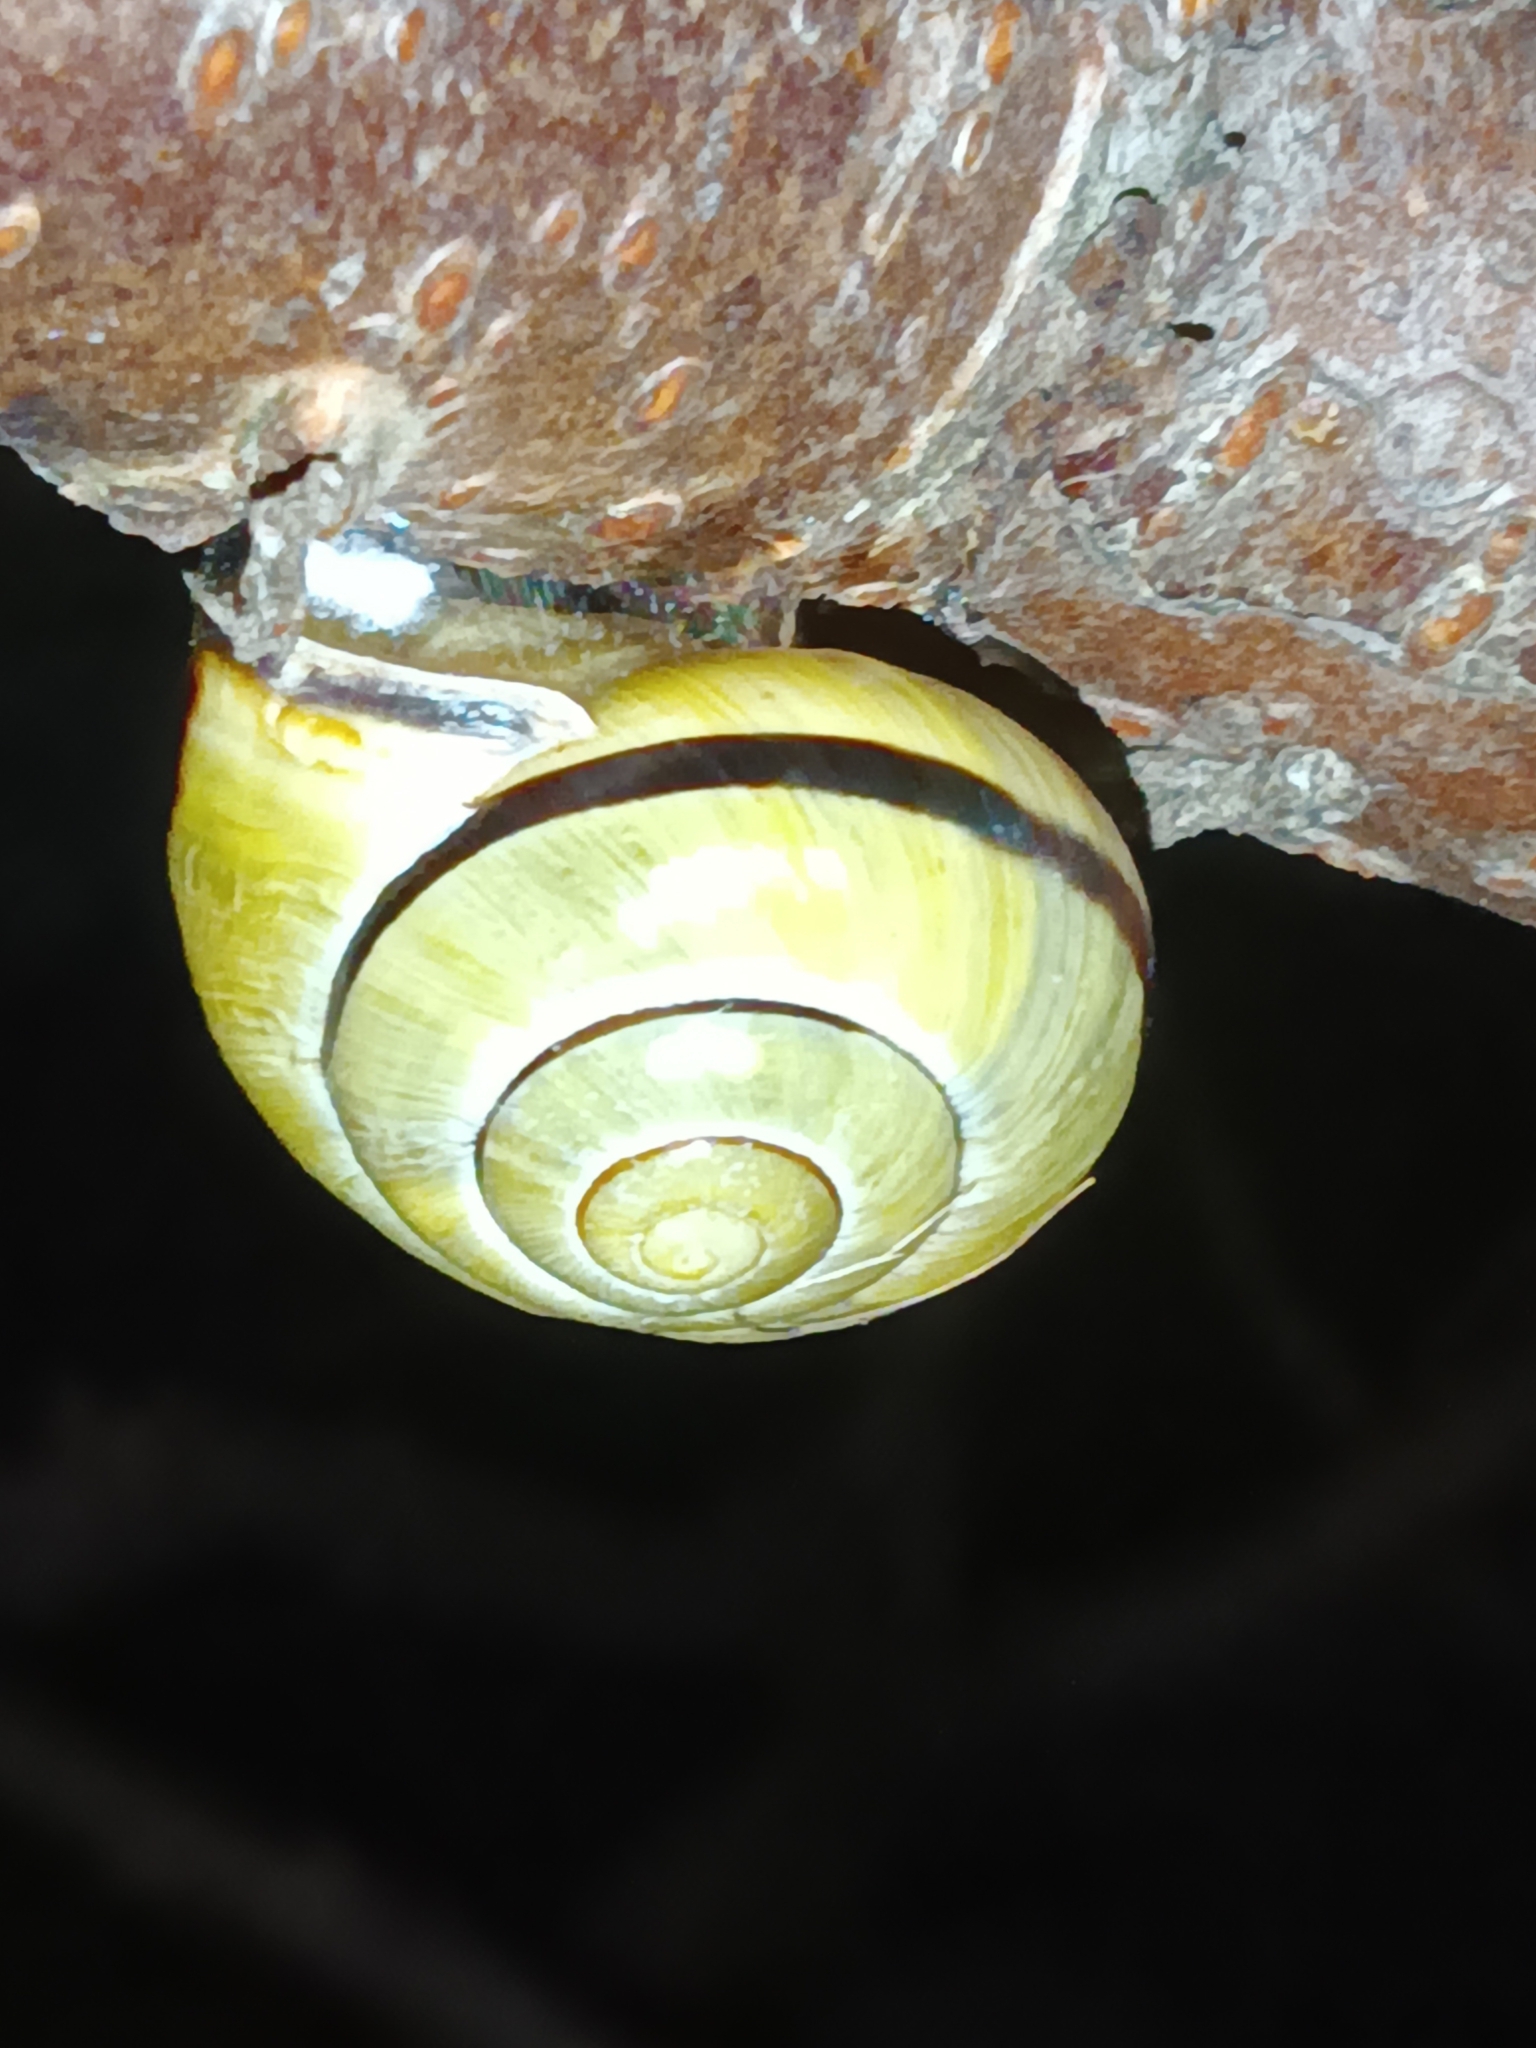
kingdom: Animalia
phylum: Mollusca
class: Gastropoda
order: Stylommatophora
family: Helicidae
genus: Cepaea
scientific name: Cepaea nemoralis
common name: Grovesnail
